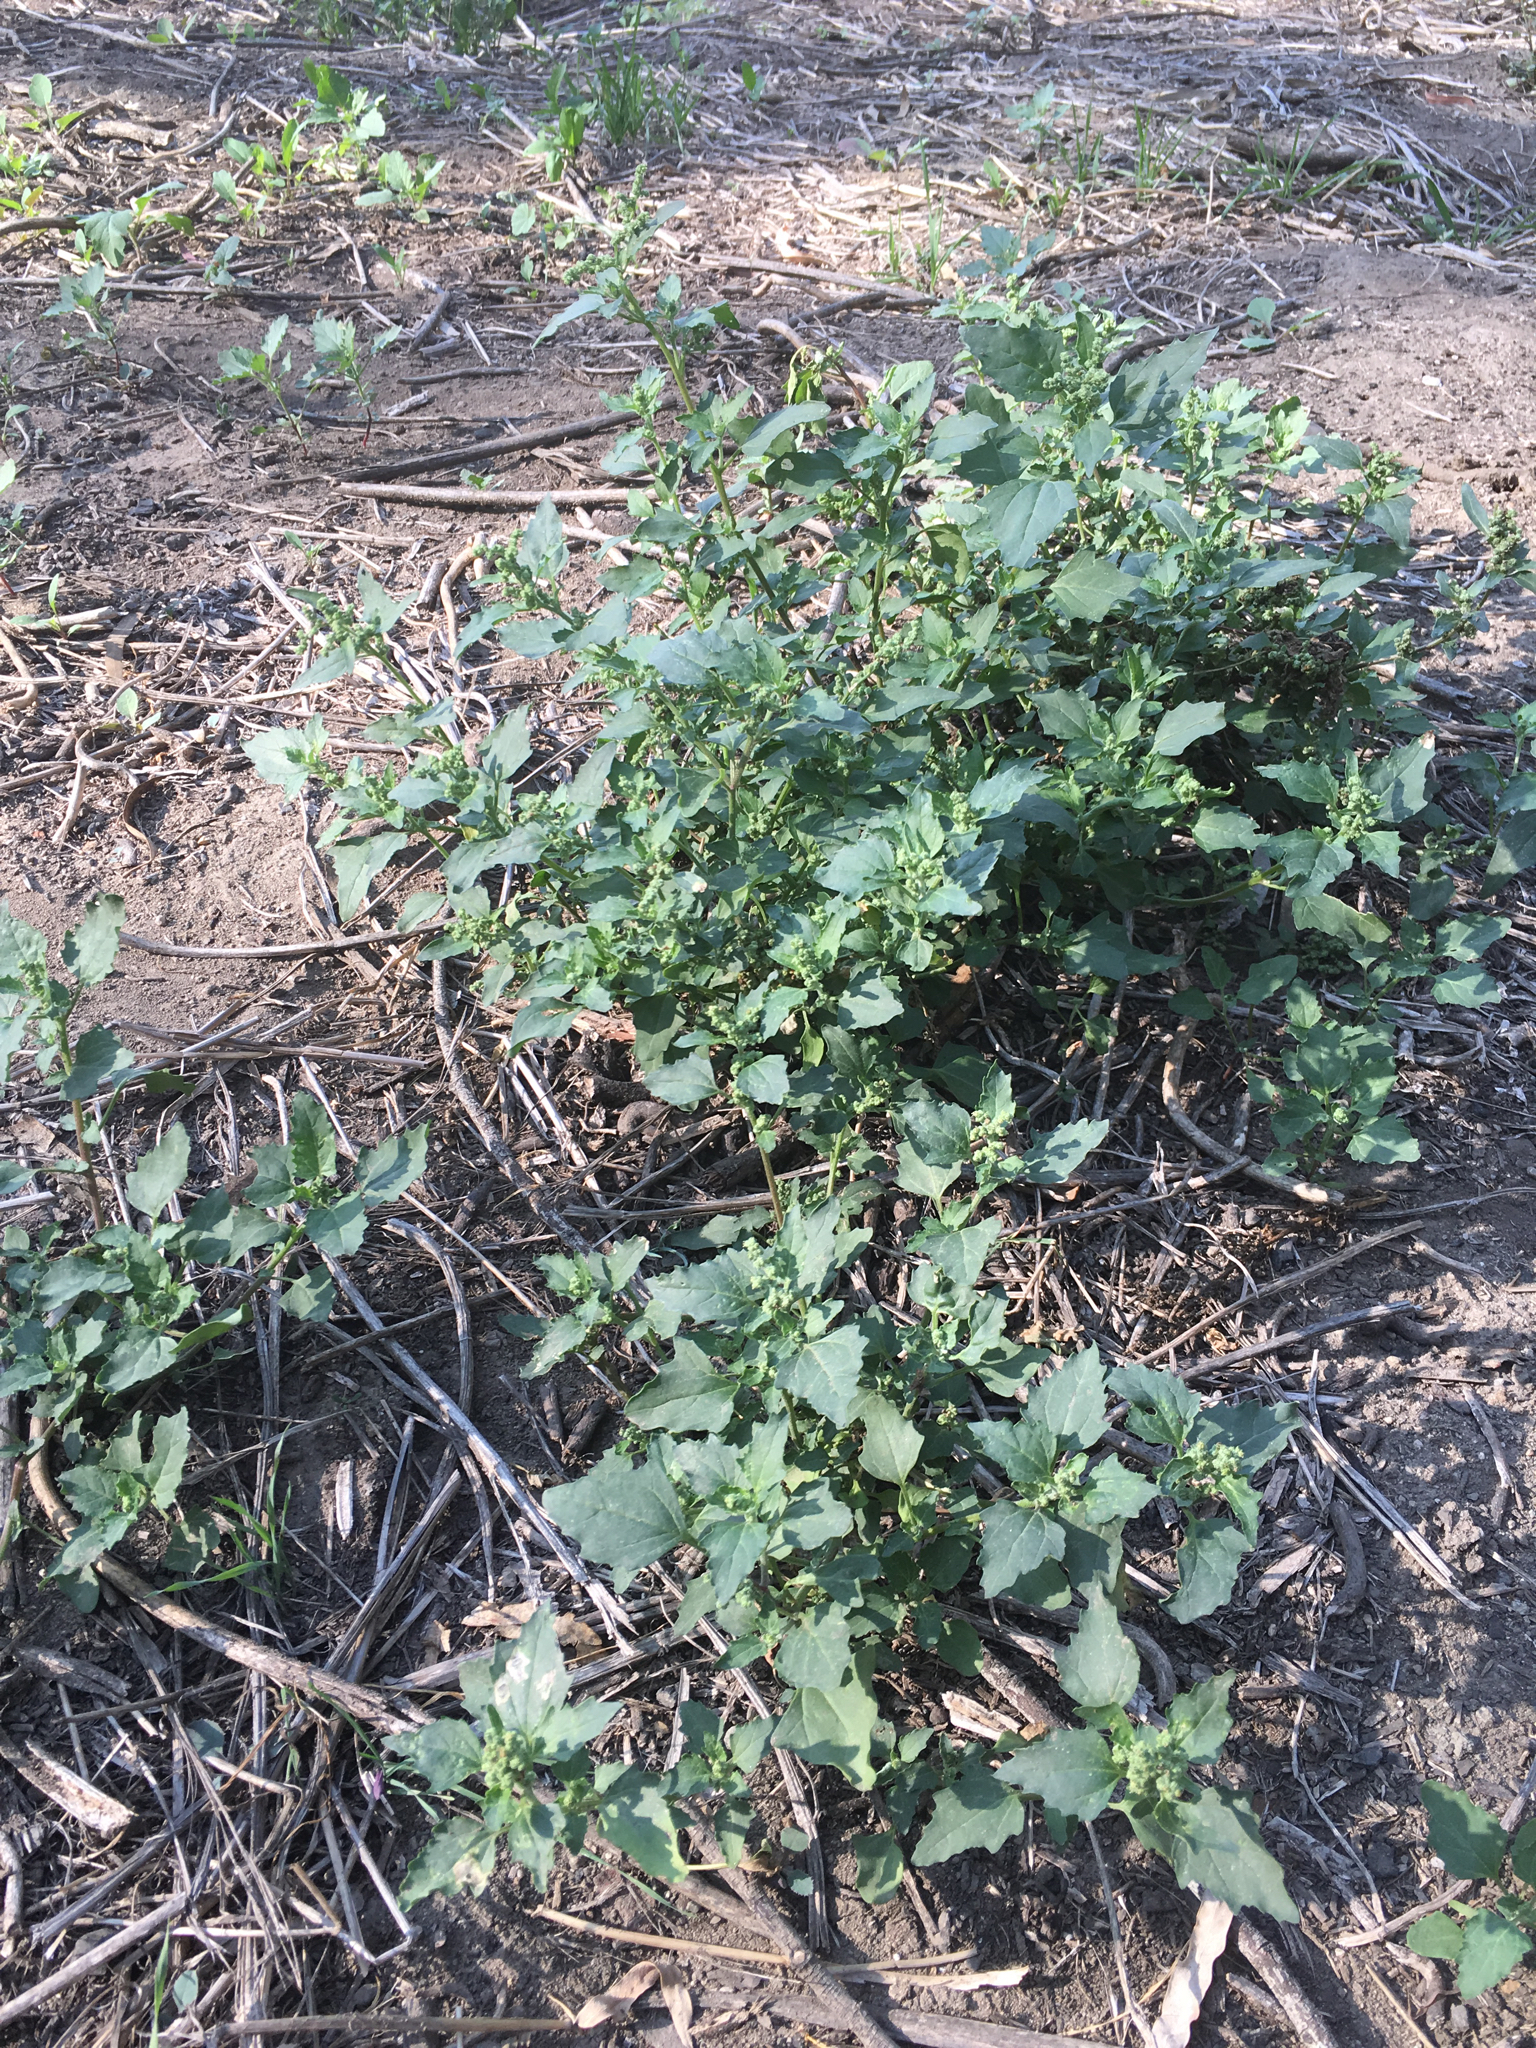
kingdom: Plantae
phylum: Tracheophyta
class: Magnoliopsida
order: Caryophyllales
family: Amaranthaceae
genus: Chenopodiastrum
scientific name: Chenopodiastrum murale
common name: Sowbane
